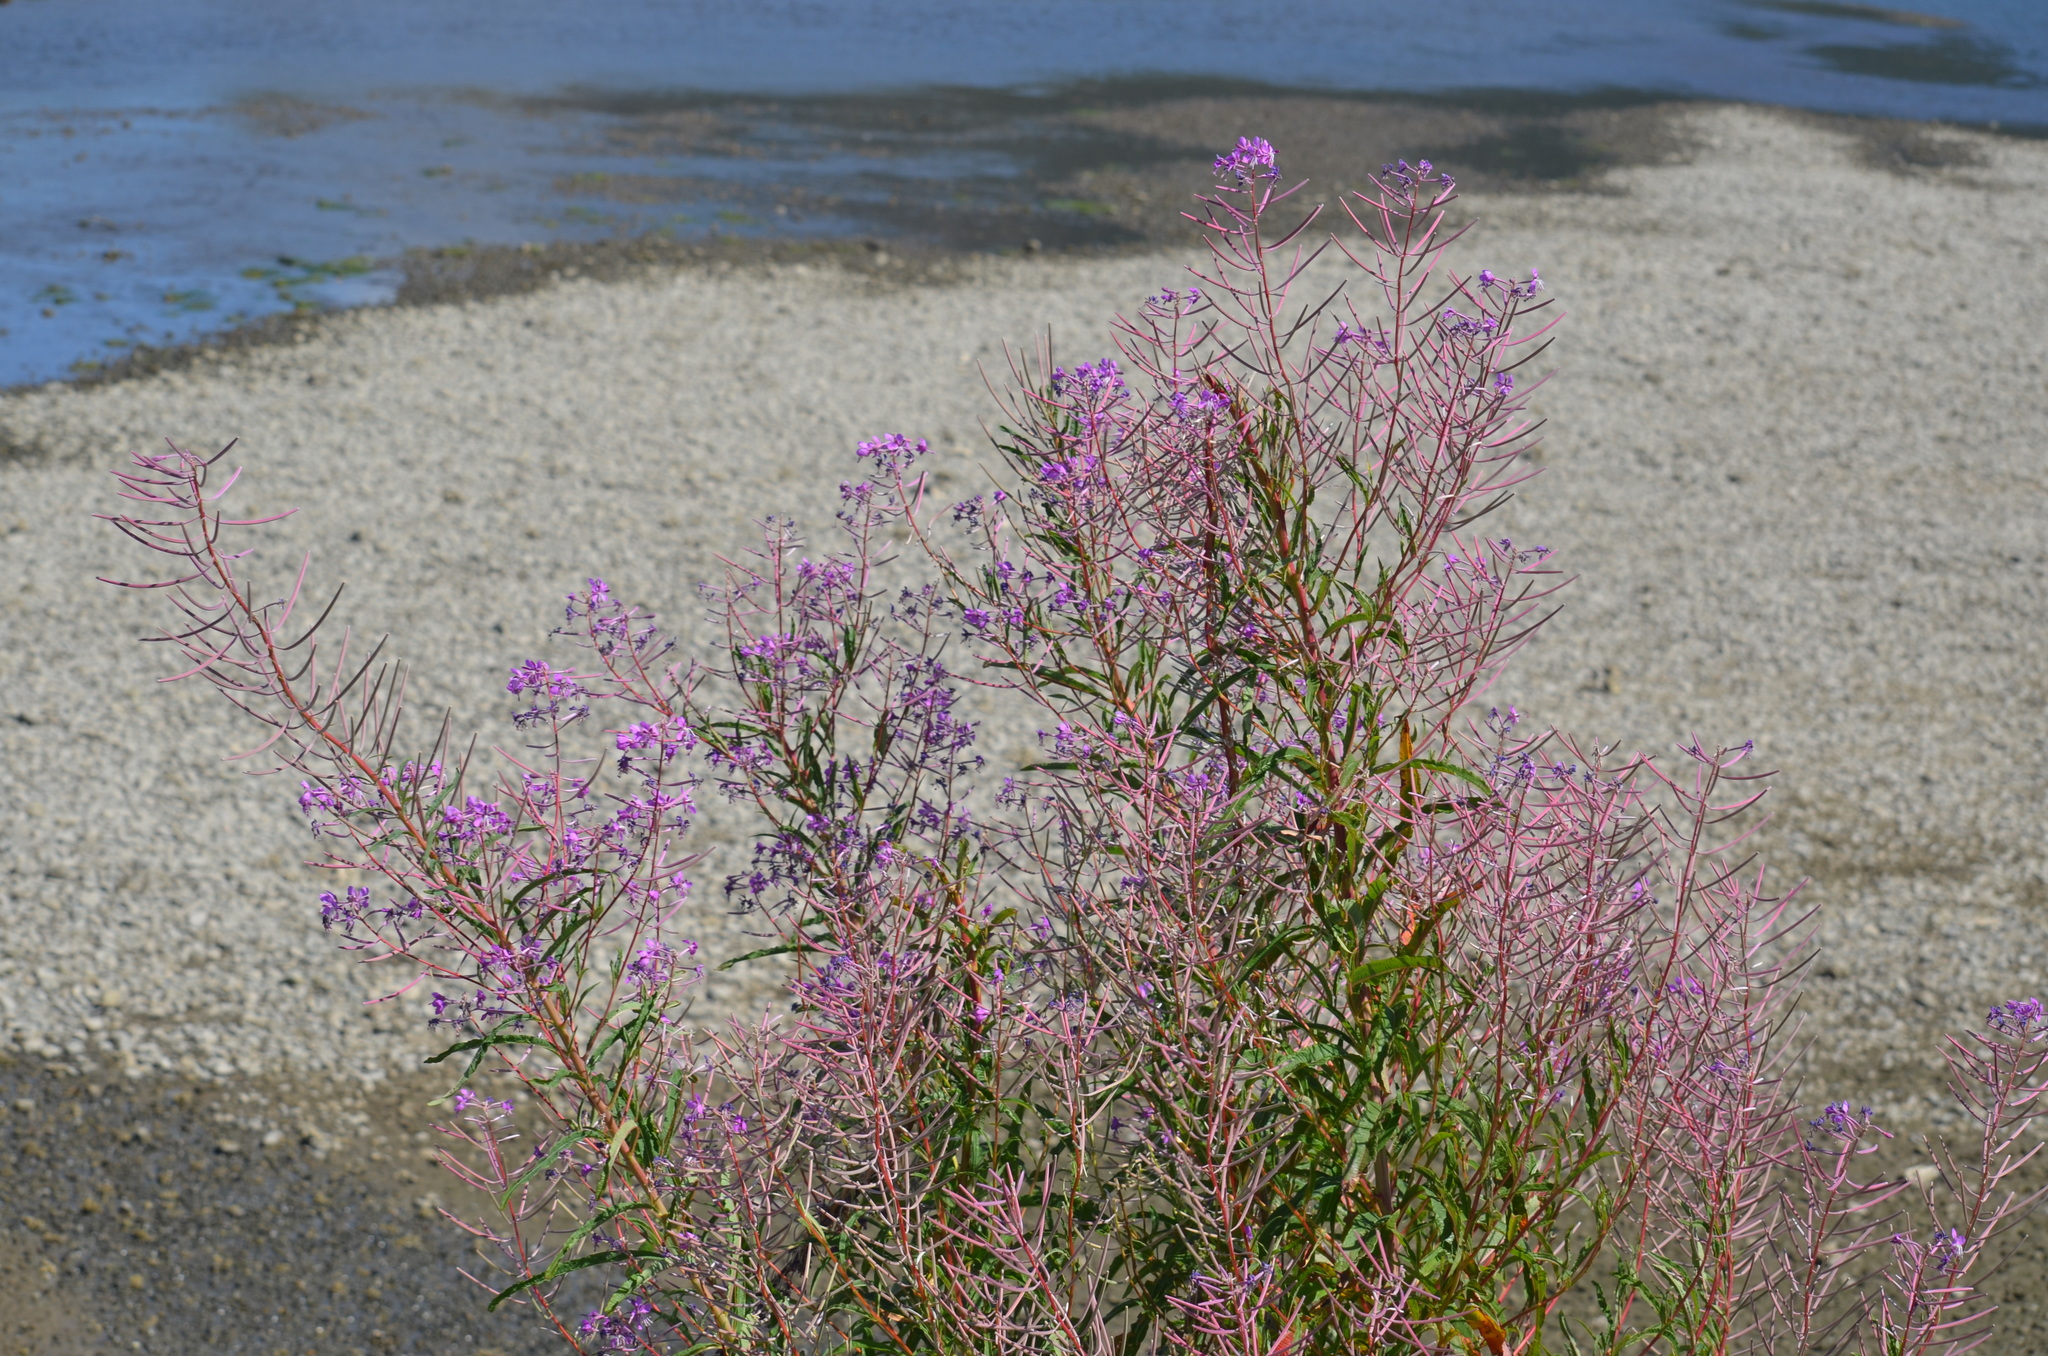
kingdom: Plantae
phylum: Tracheophyta
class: Magnoliopsida
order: Myrtales
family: Onagraceae
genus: Chamaenerion
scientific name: Chamaenerion angustifolium
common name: Fireweed
